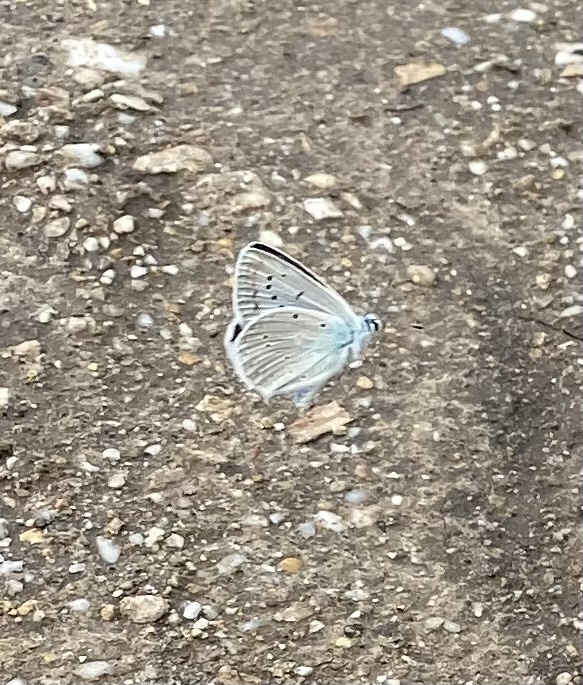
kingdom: Animalia
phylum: Arthropoda
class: Insecta
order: Lepidoptera
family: Lycaenidae
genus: Polyommatus
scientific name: Polyommatus daphnis
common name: Meleager's blue
